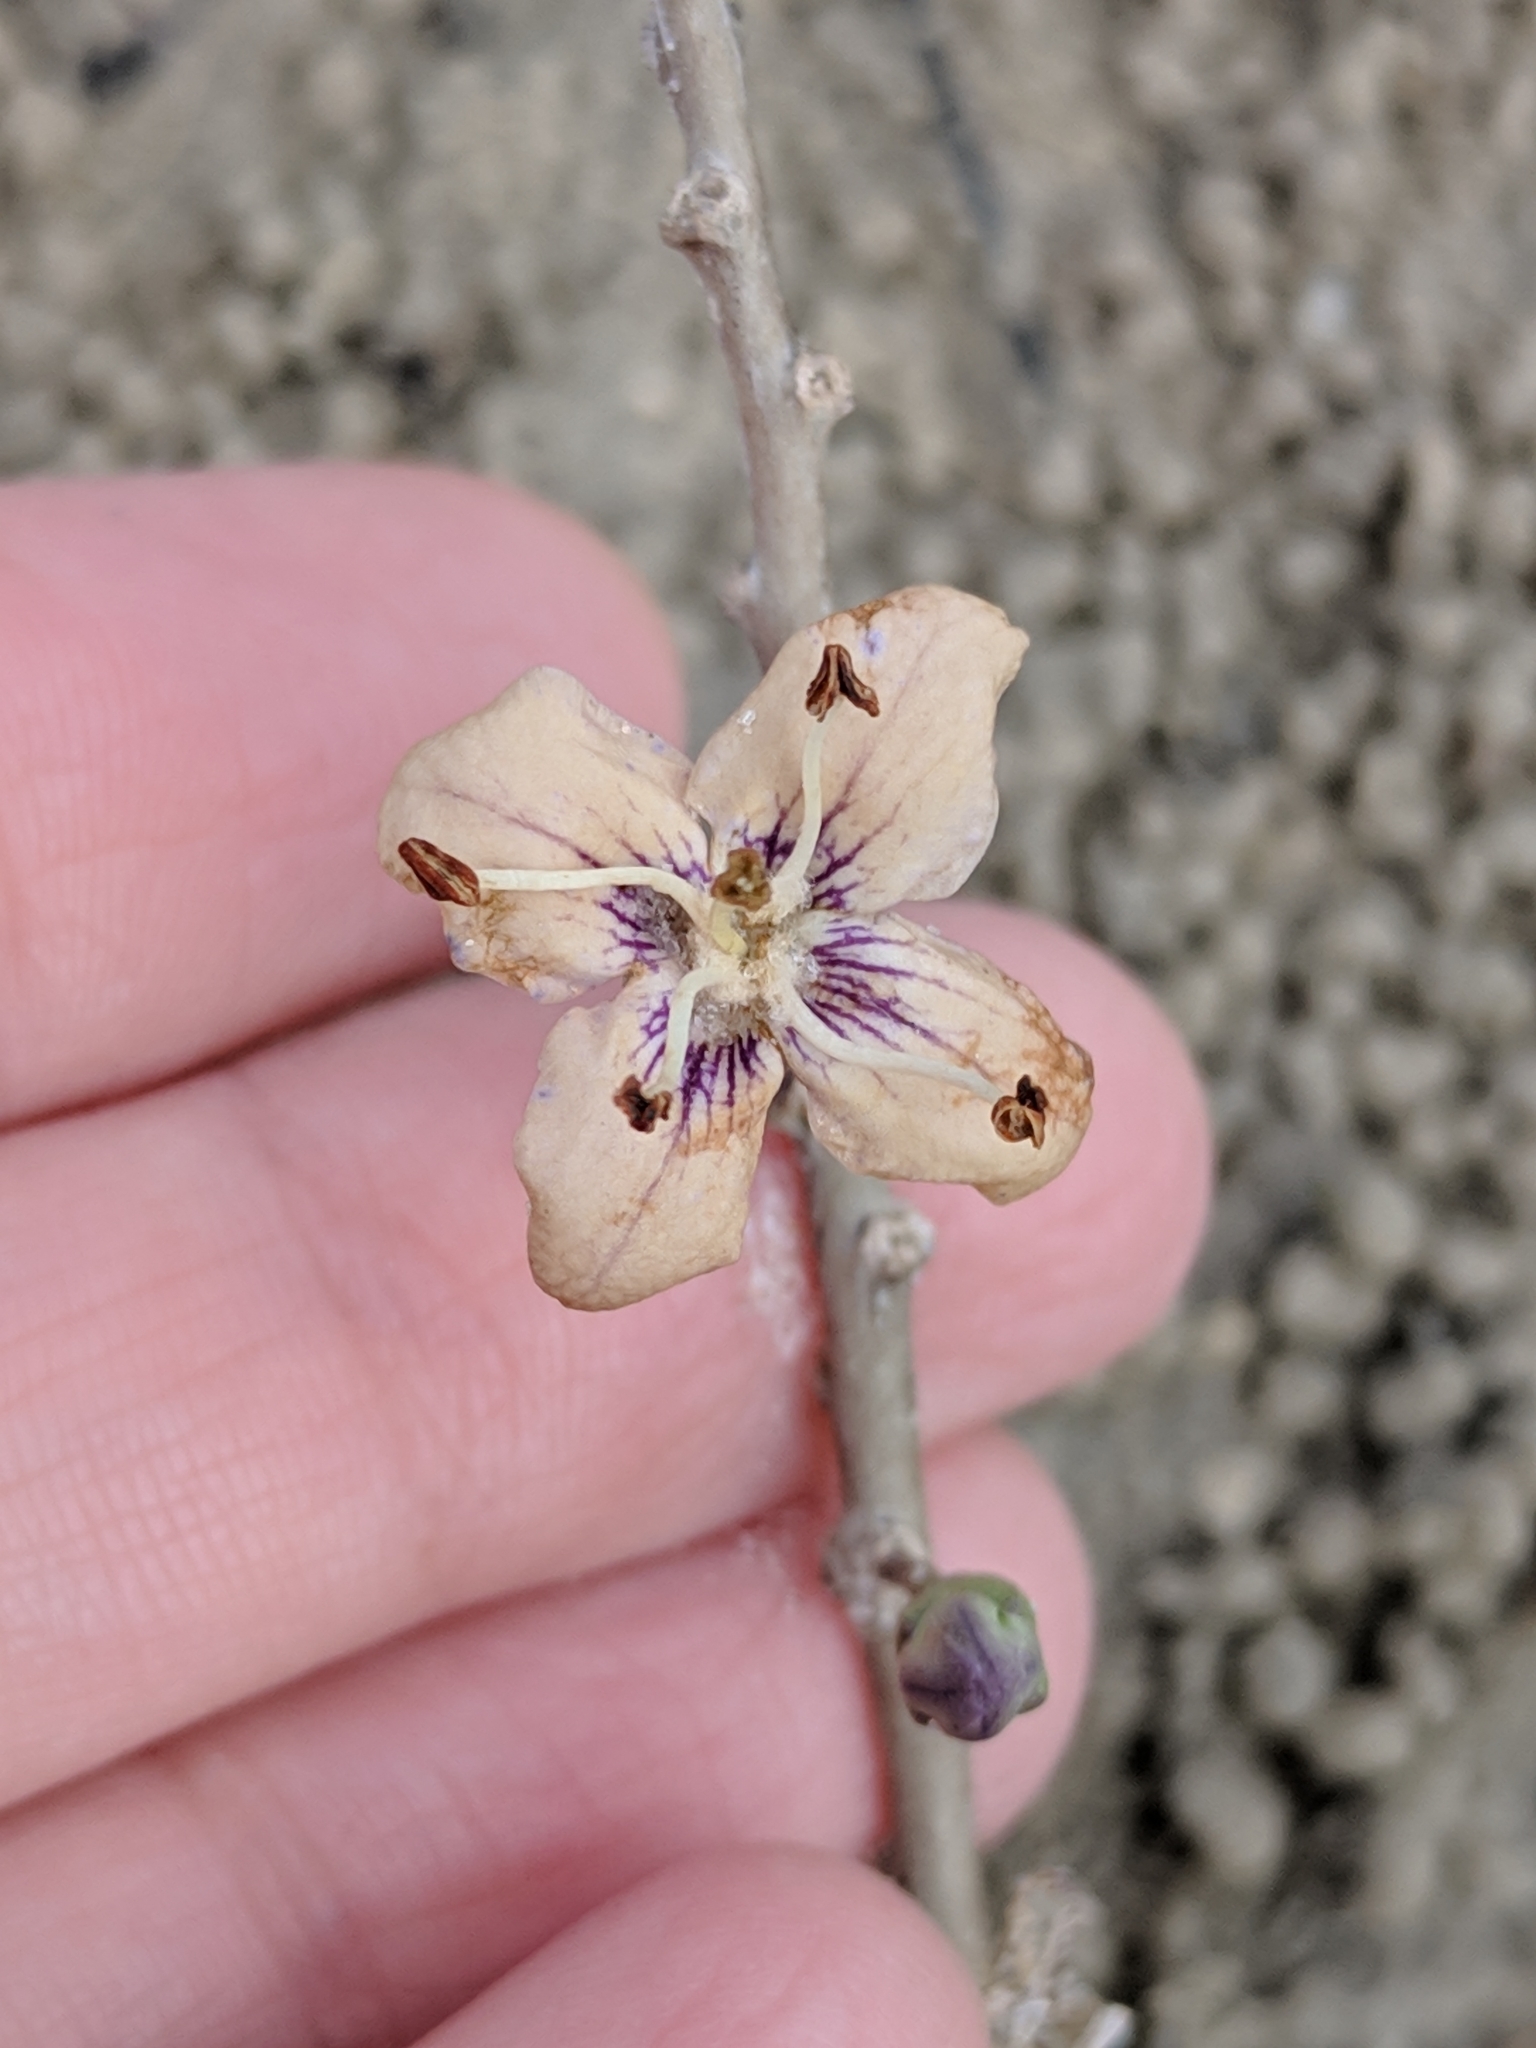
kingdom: Plantae
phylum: Tracheophyta
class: Magnoliopsida
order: Solanales
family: Solanaceae
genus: Lycium
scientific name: Lycium carolinianum
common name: Christmasberry
